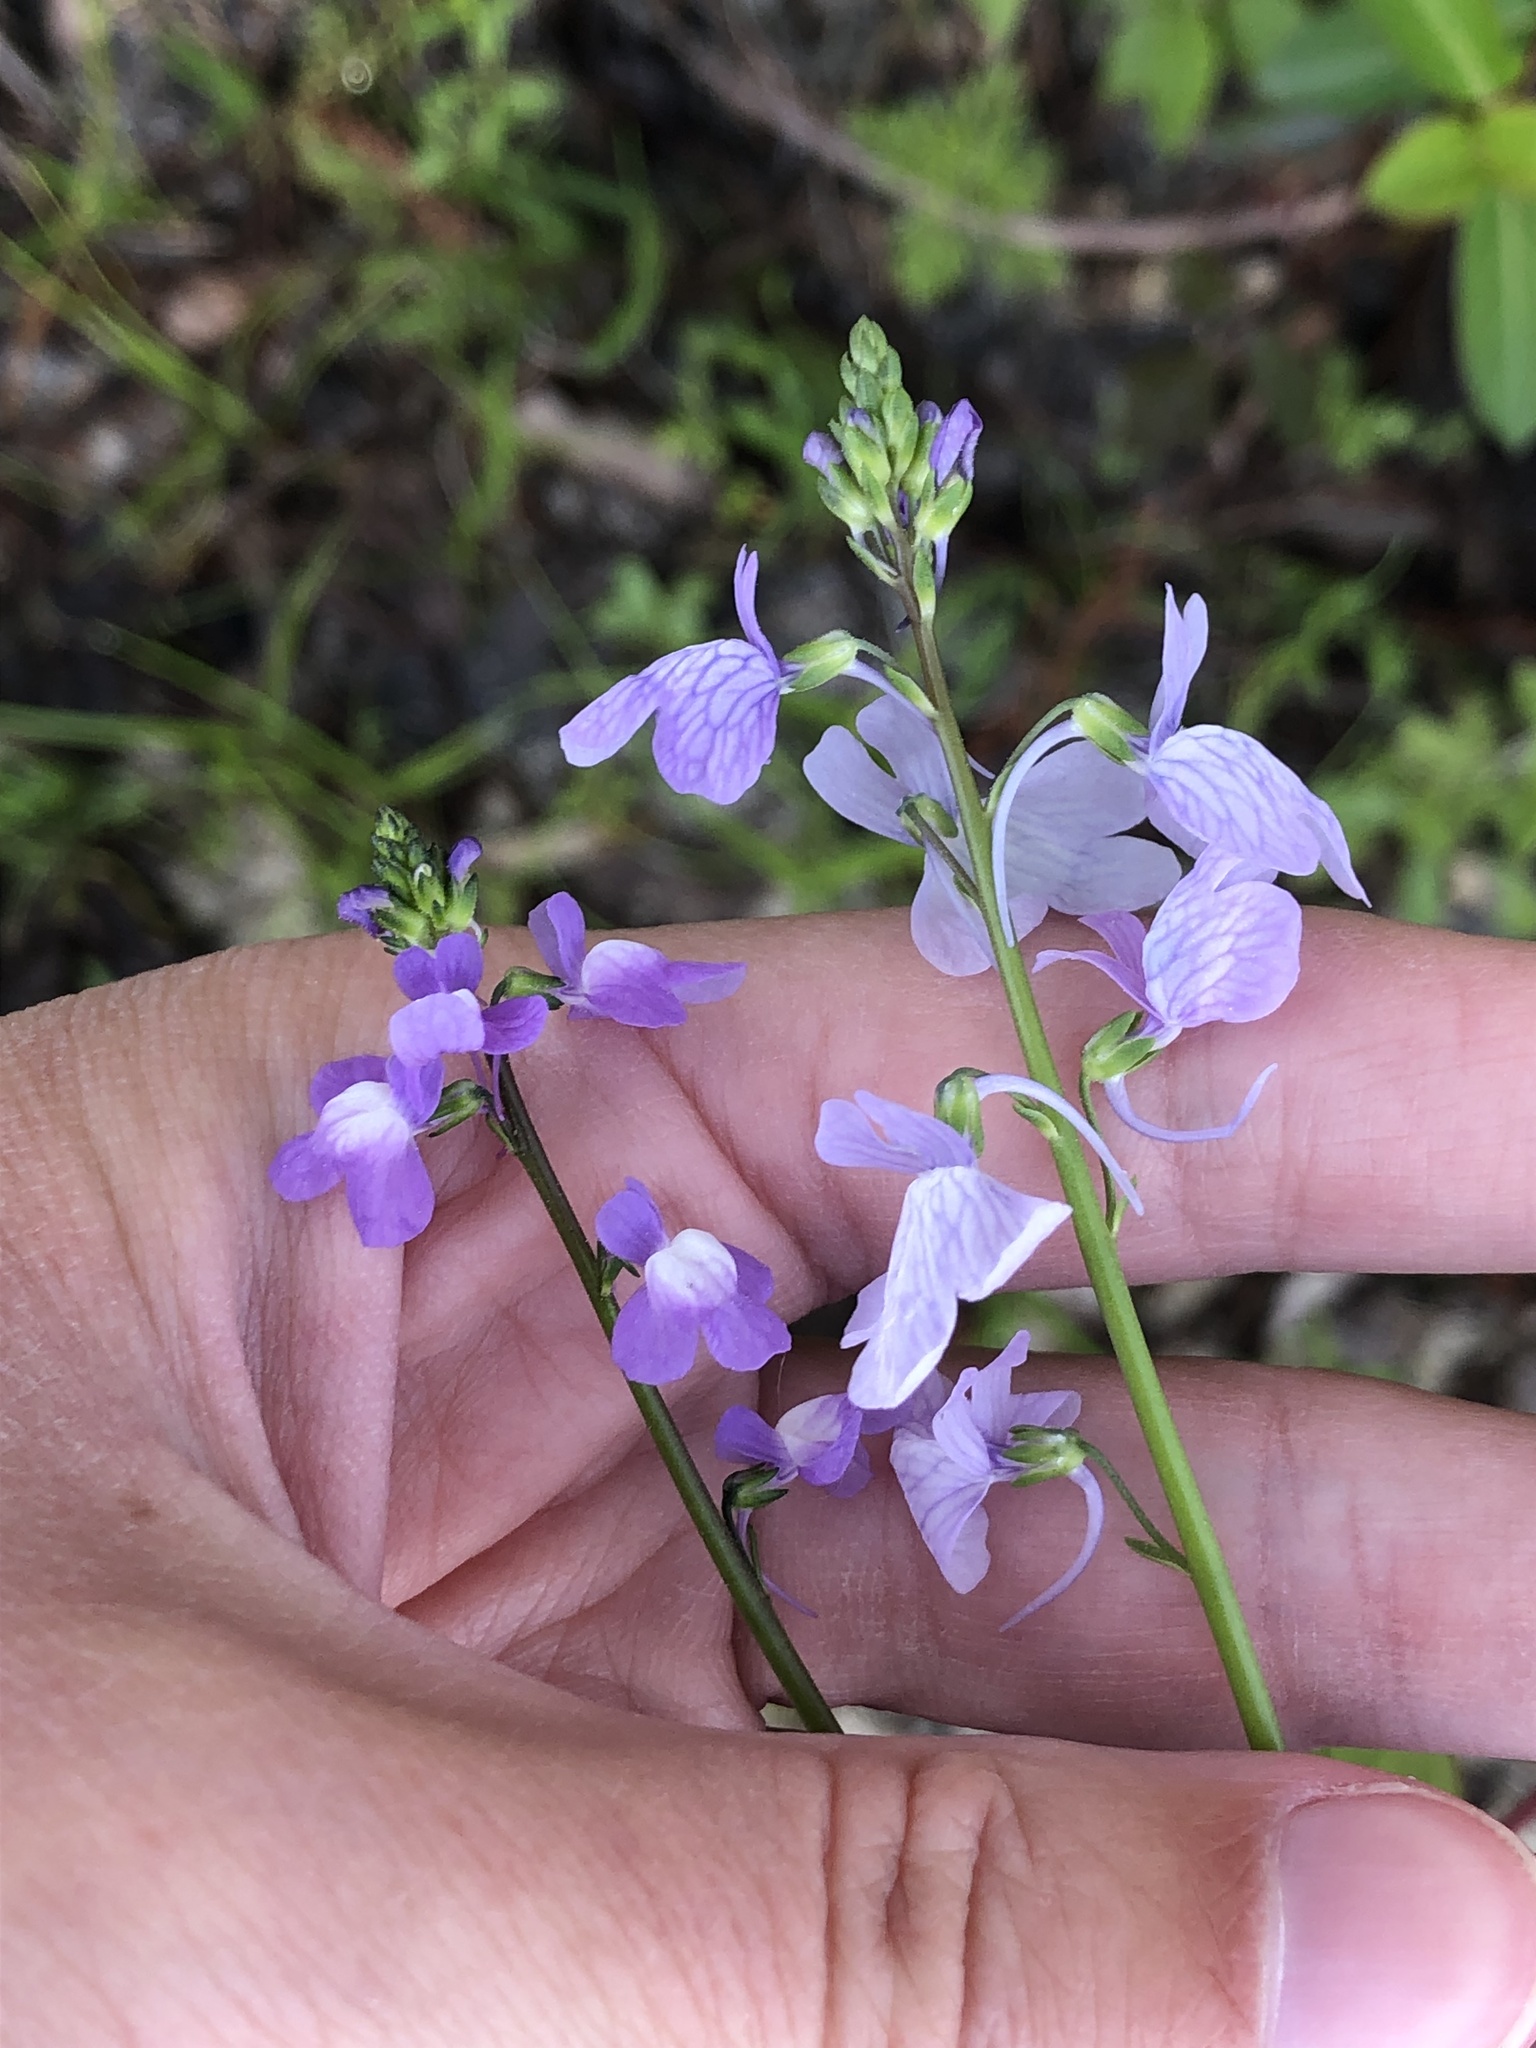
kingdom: Plantae
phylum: Tracheophyta
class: Magnoliopsida
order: Lamiales
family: Plantaginaceae
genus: Nuttallanthus
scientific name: Nuttallanthus texanus
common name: Texas toadflax
